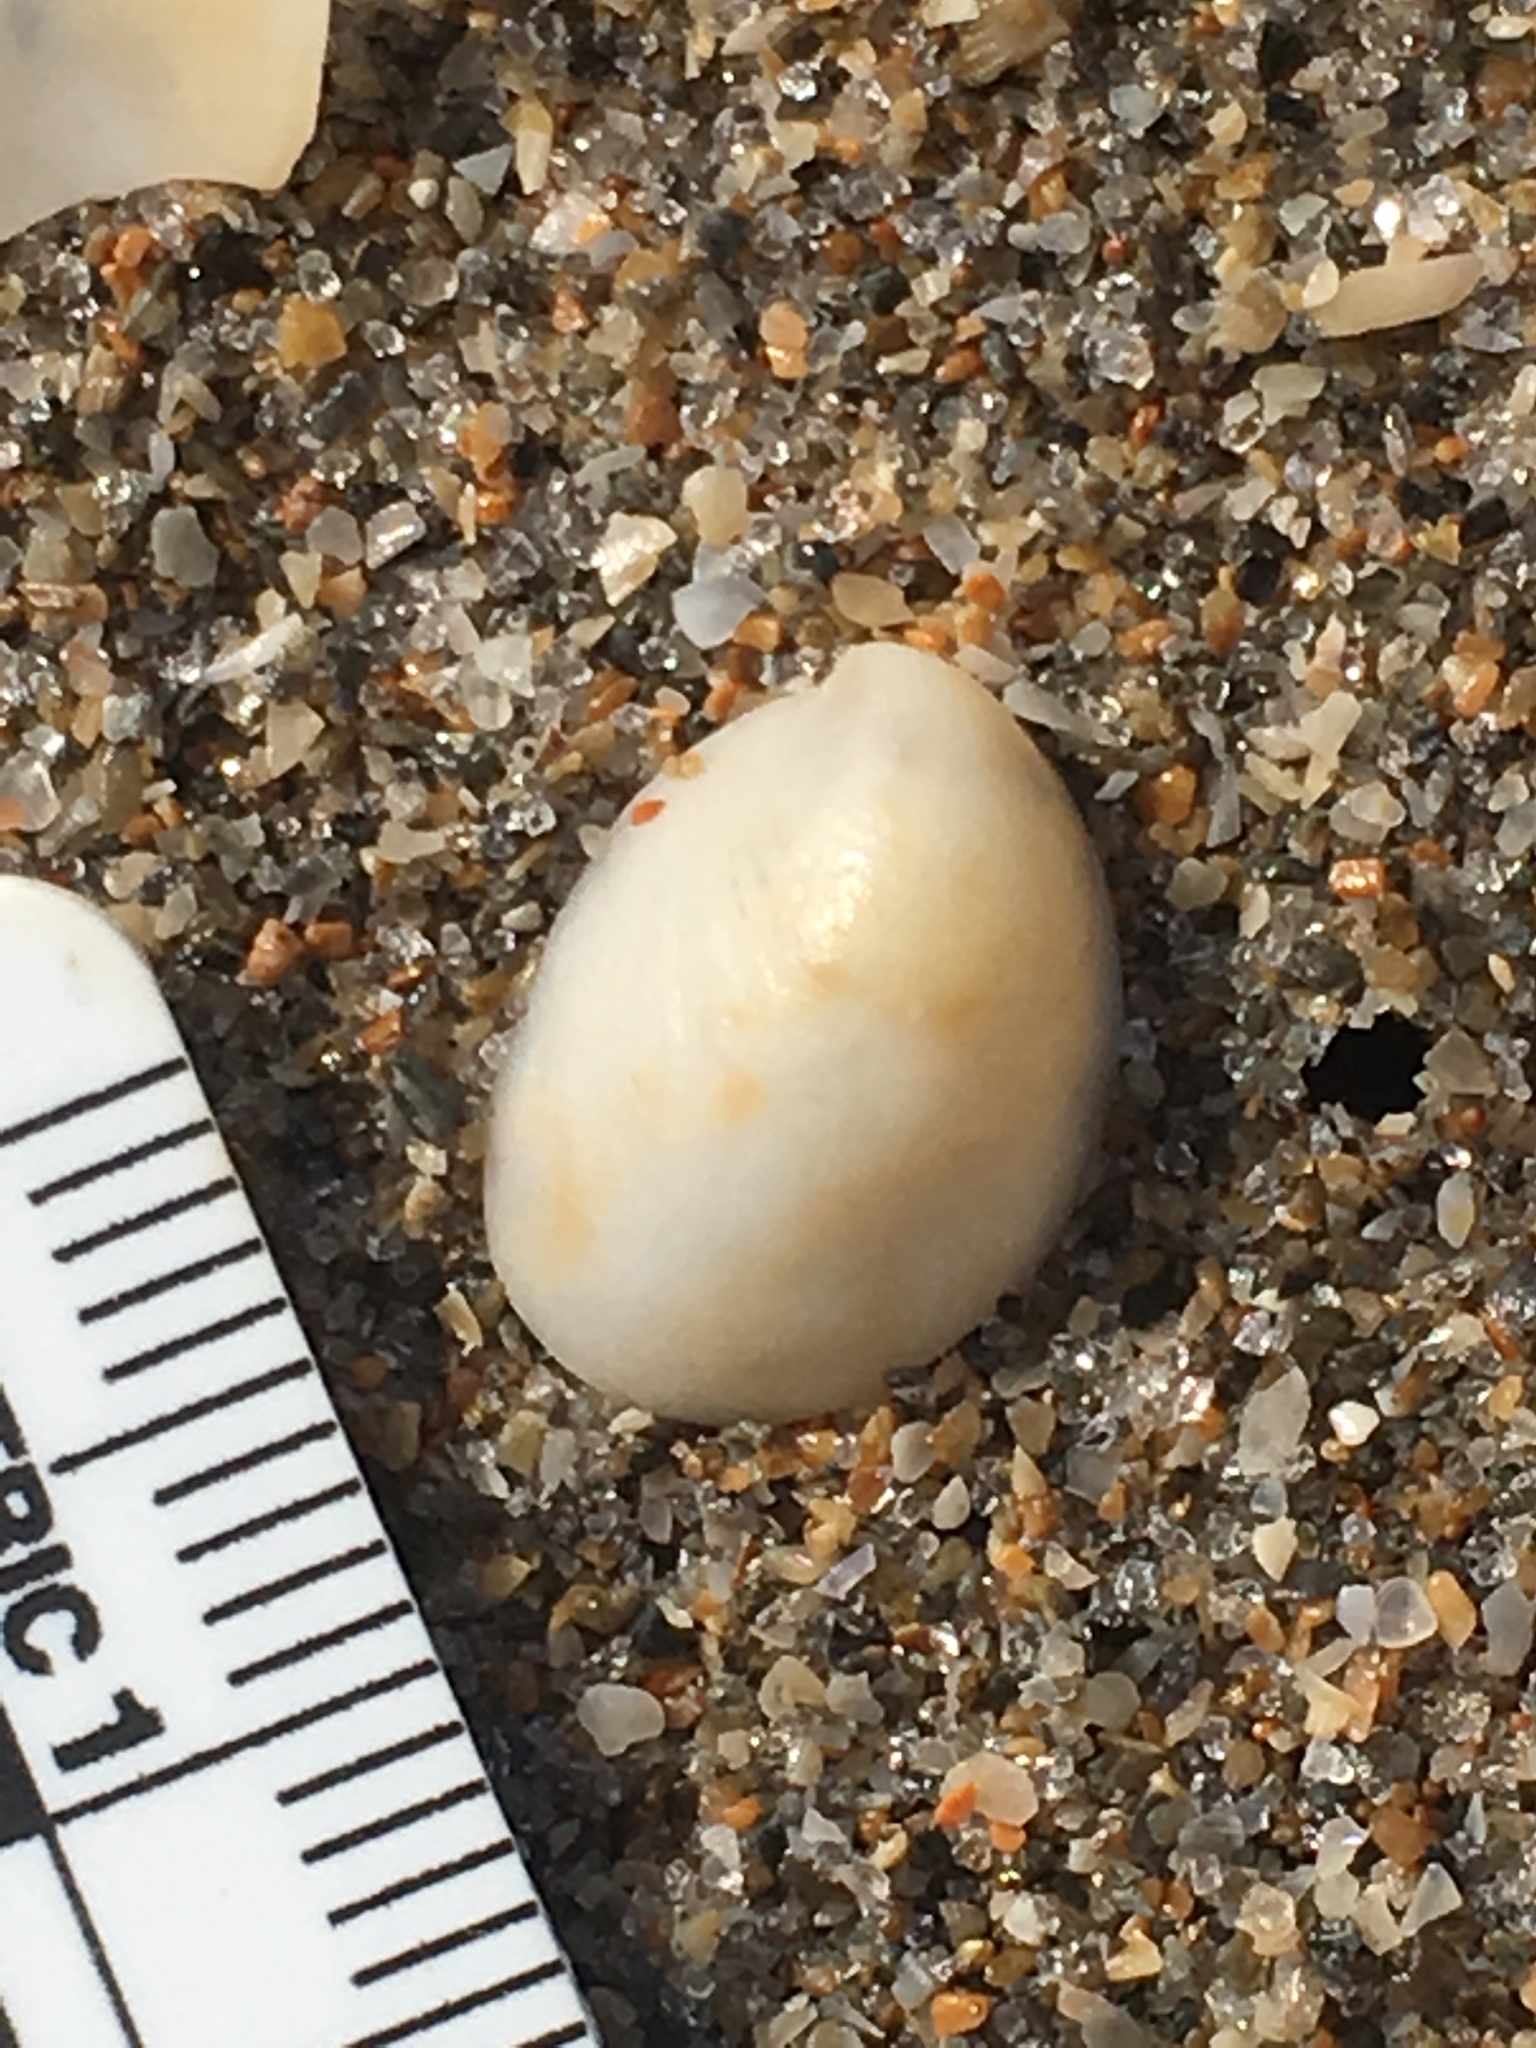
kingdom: Animalia
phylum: Mollusca
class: Gastropoda
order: Littorinimorpha
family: Calyptraeidae
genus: Crepidula
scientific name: Crepidula fornicata
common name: Slipper limpet
